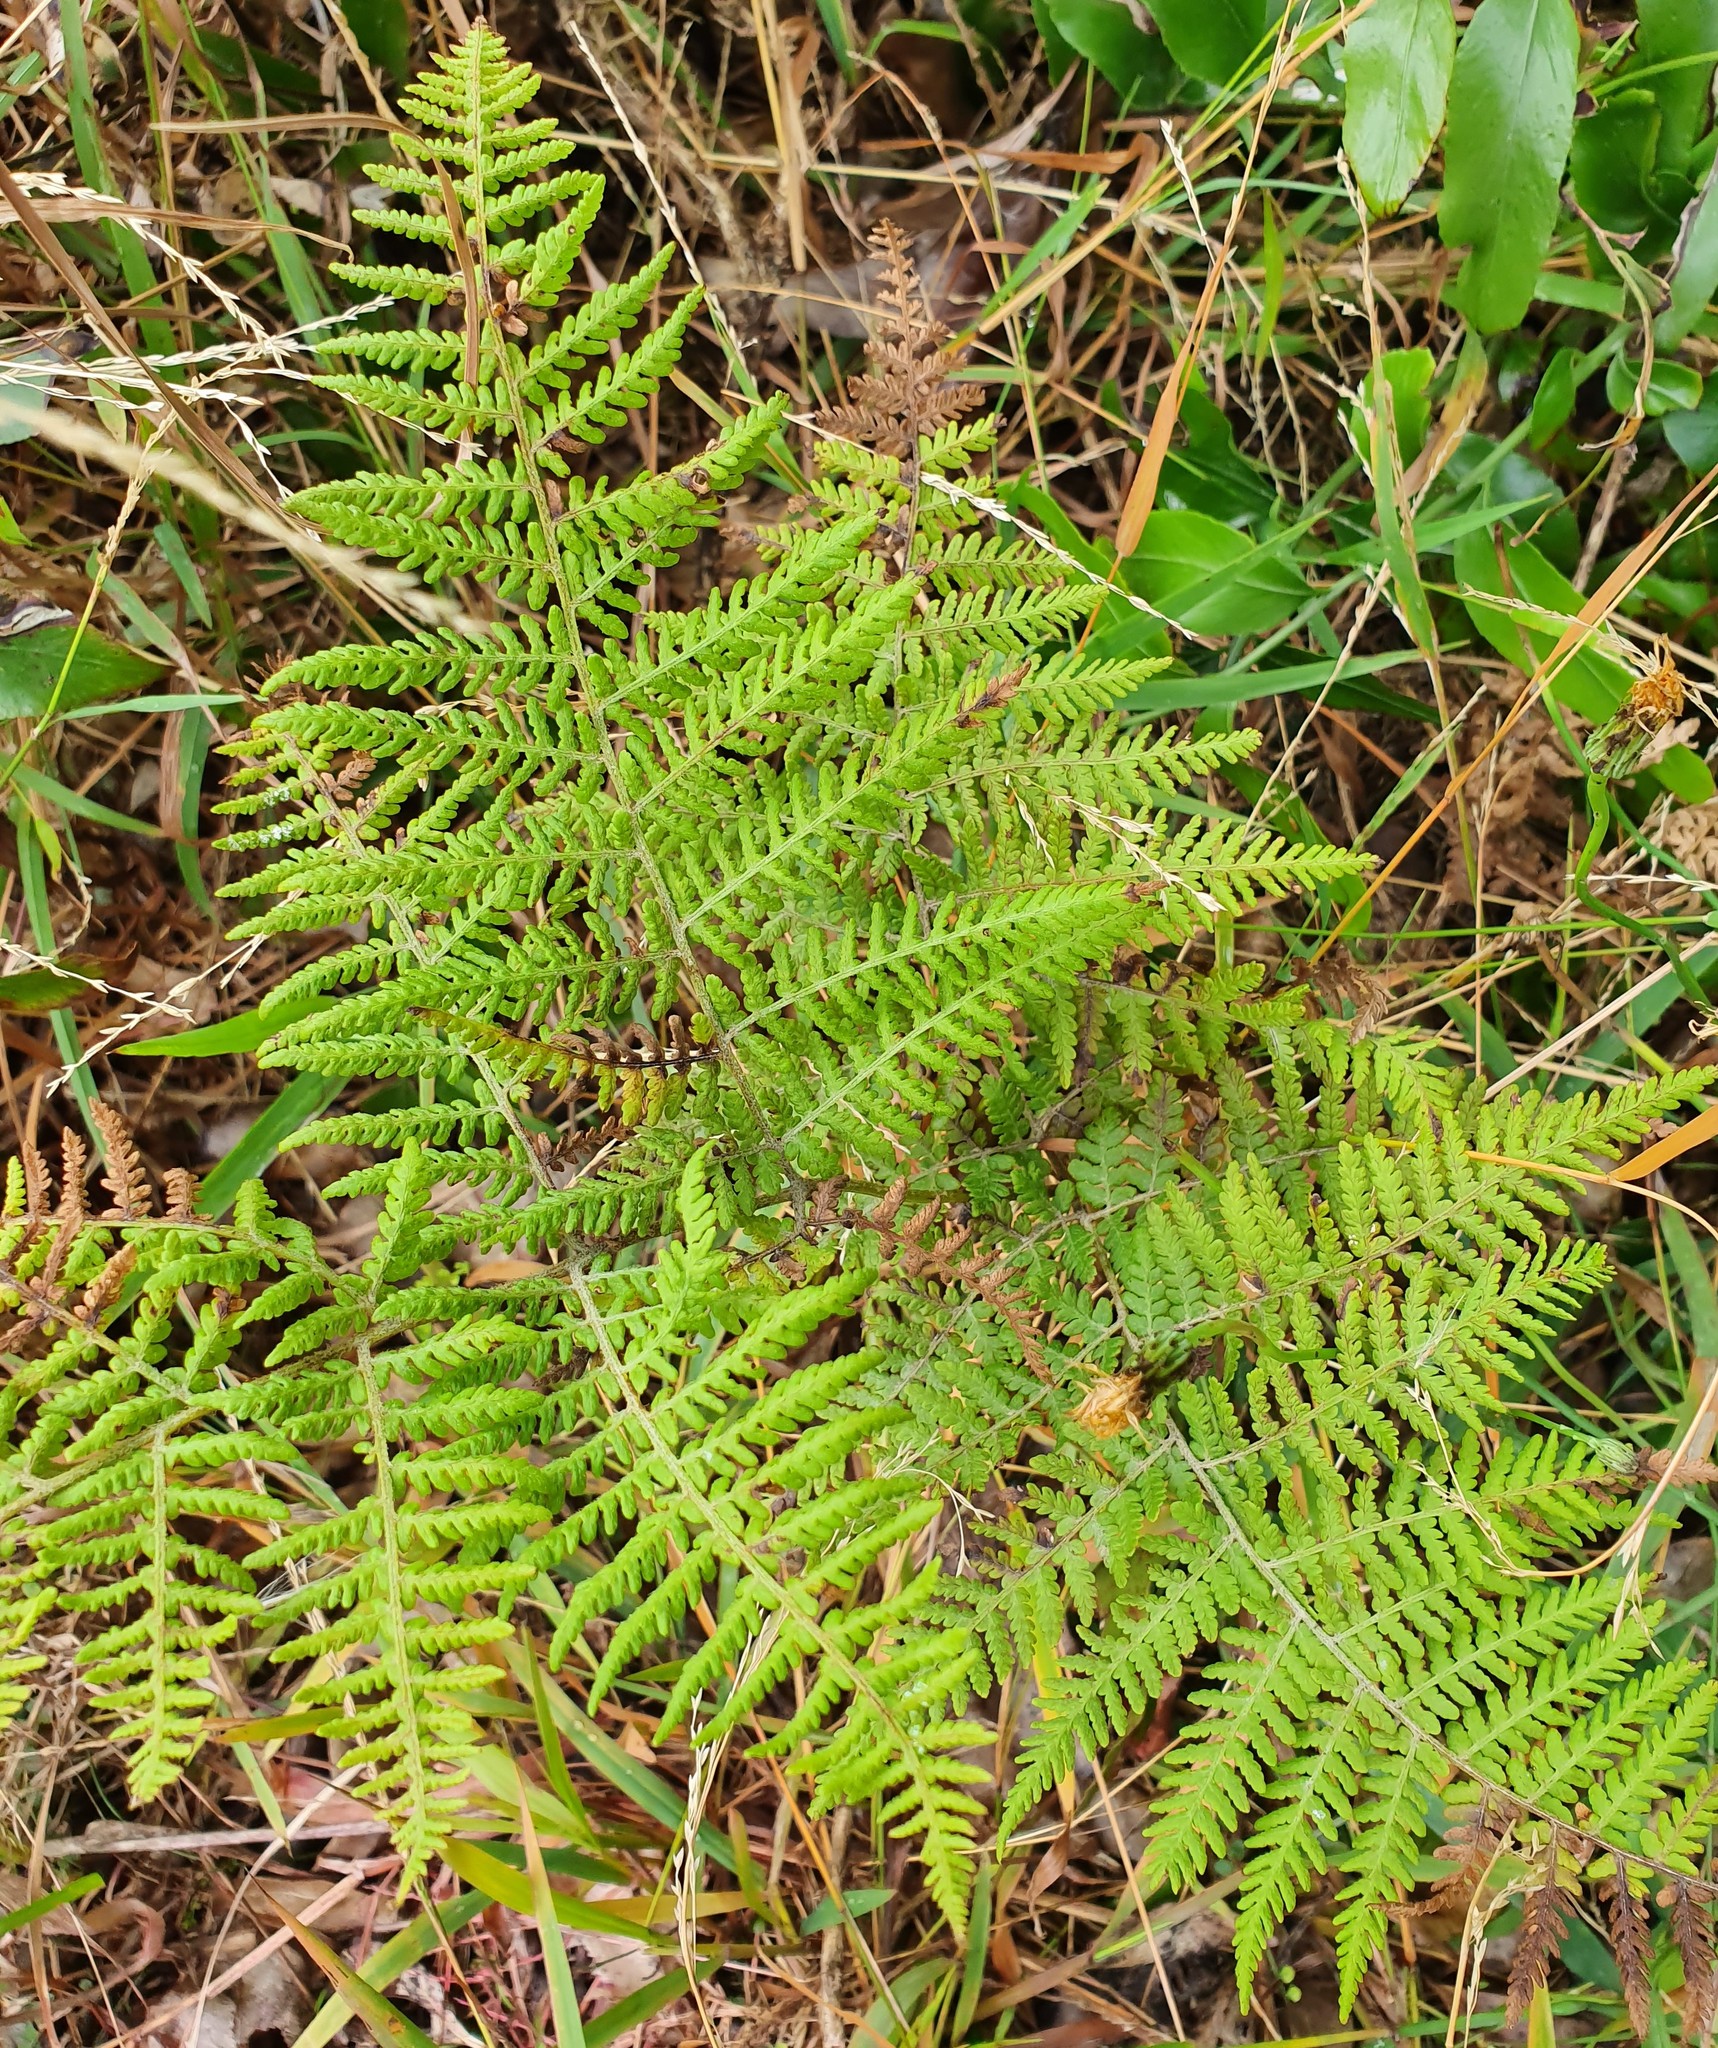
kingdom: Plantae
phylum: Tracheophyta
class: Polypodiopsida
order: Polypodiales
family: Dennstaedtiaceae
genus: Hypolepis
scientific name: Hypolepis ambigua
